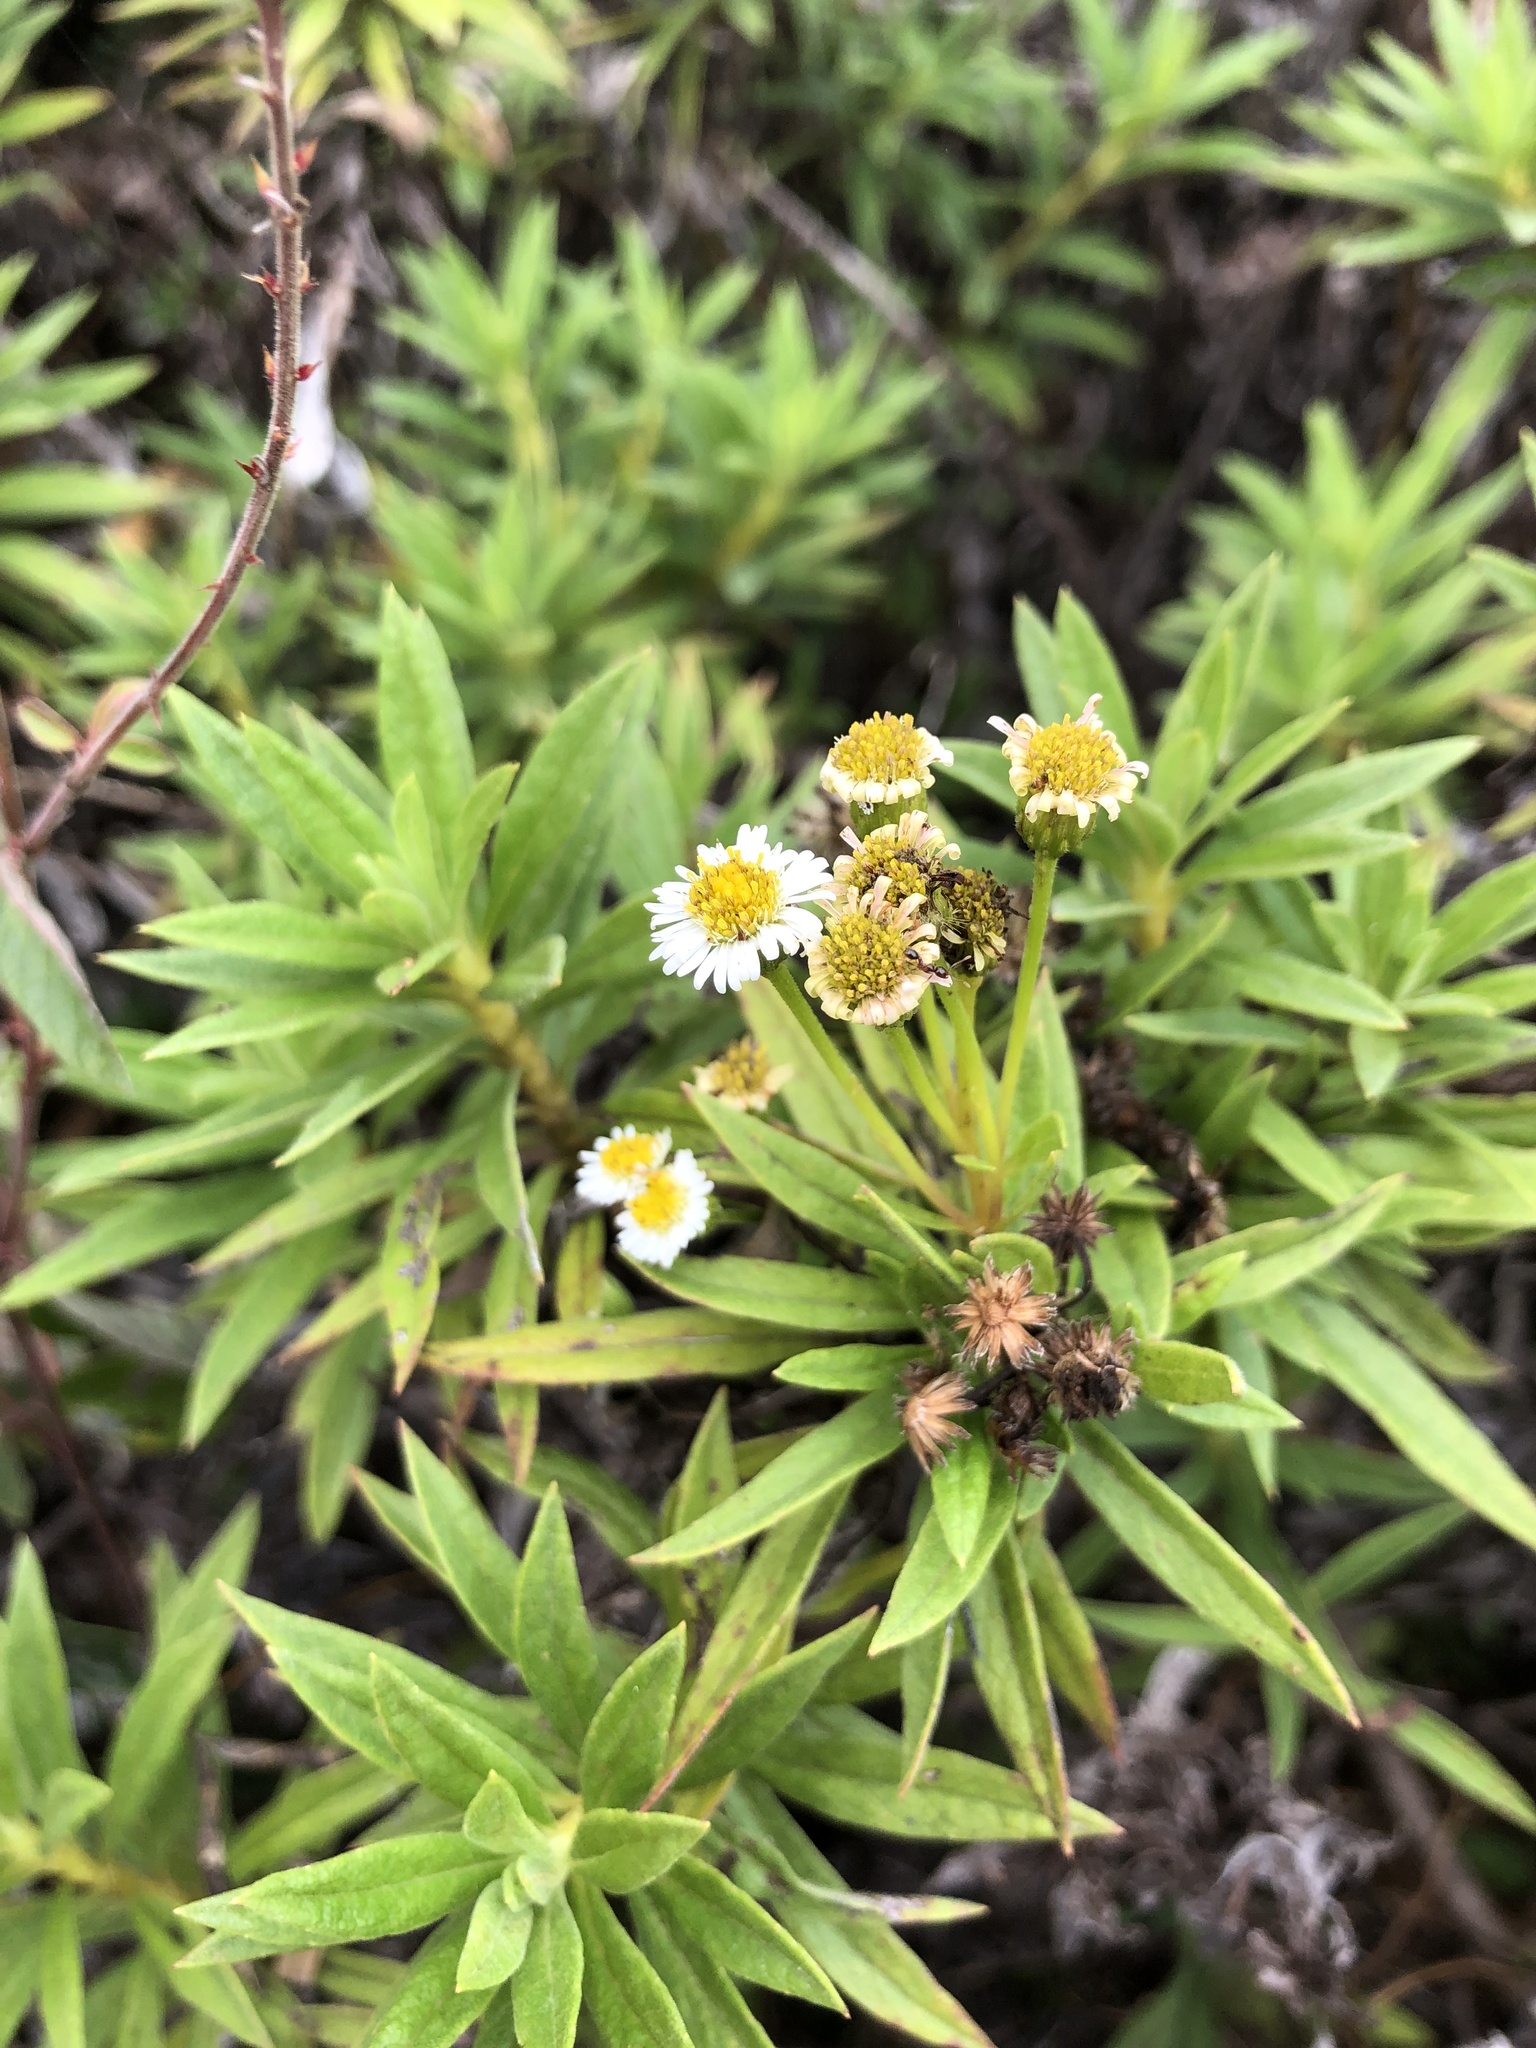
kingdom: Plantae
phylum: Tracheophyta
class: Magnoliopsida
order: Asterales
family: Asteraceae
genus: Erigeron
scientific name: Erigeron lancifolius
